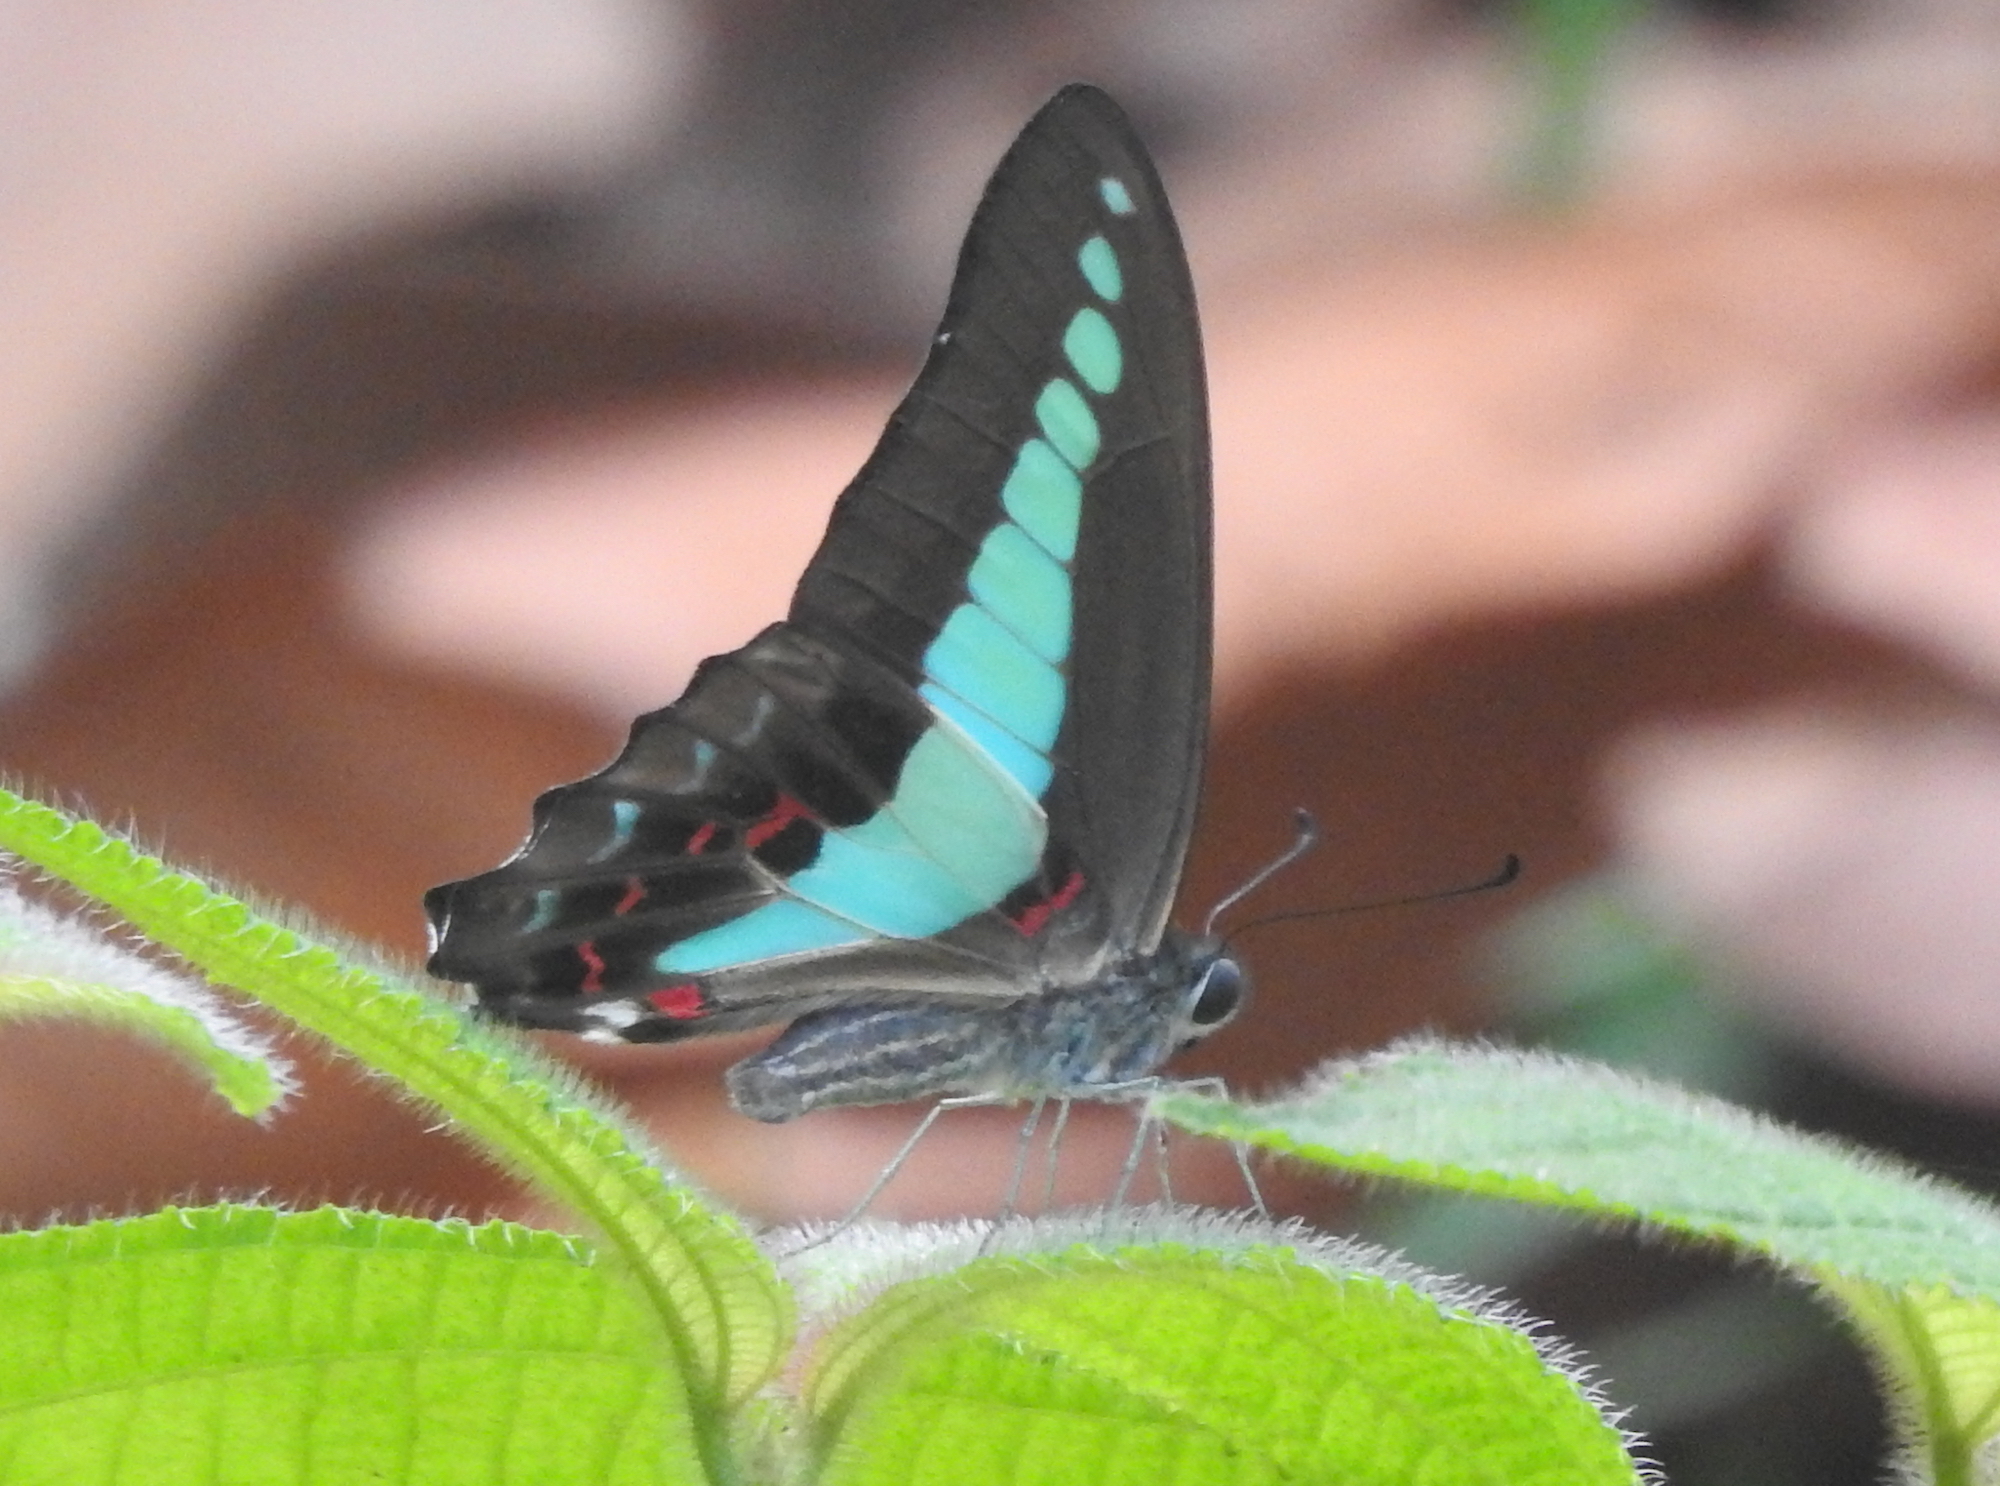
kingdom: Fungi
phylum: Ascomycota
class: Sordariomycetes
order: Microascales
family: Microascaceae
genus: Graphium
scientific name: Graphium sarpedon
